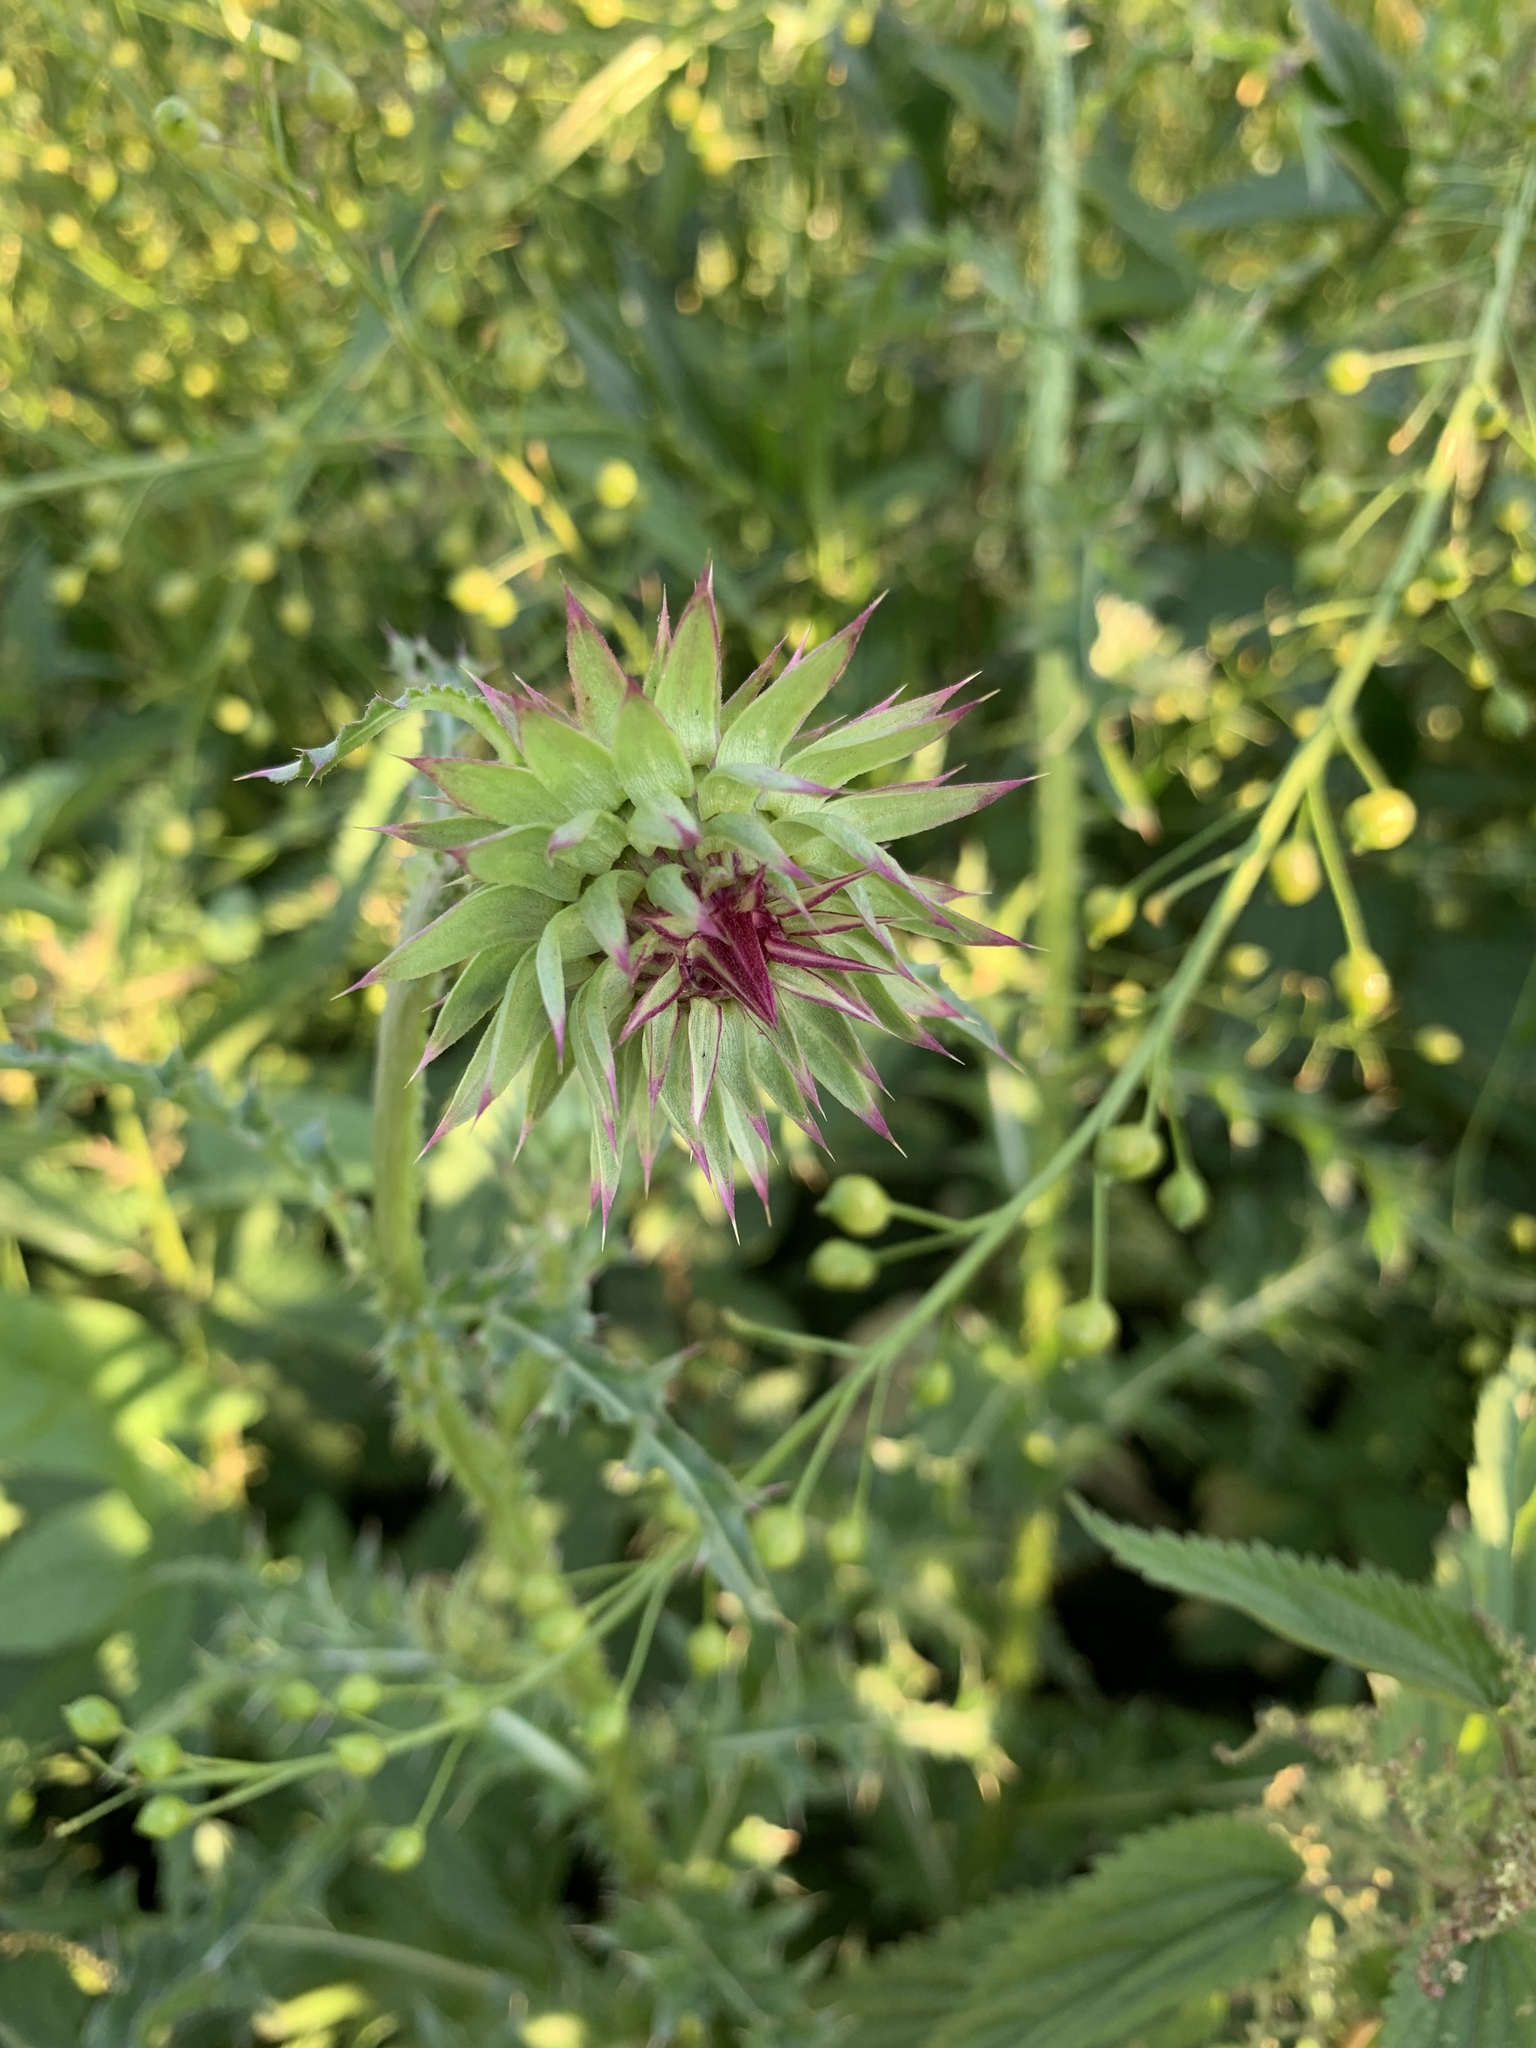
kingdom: Plantae
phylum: Tracheophyta
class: Magnoliopsida
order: Asterales
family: Asteraceae
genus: Carduus
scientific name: Carduus nutans
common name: Musk thistle
